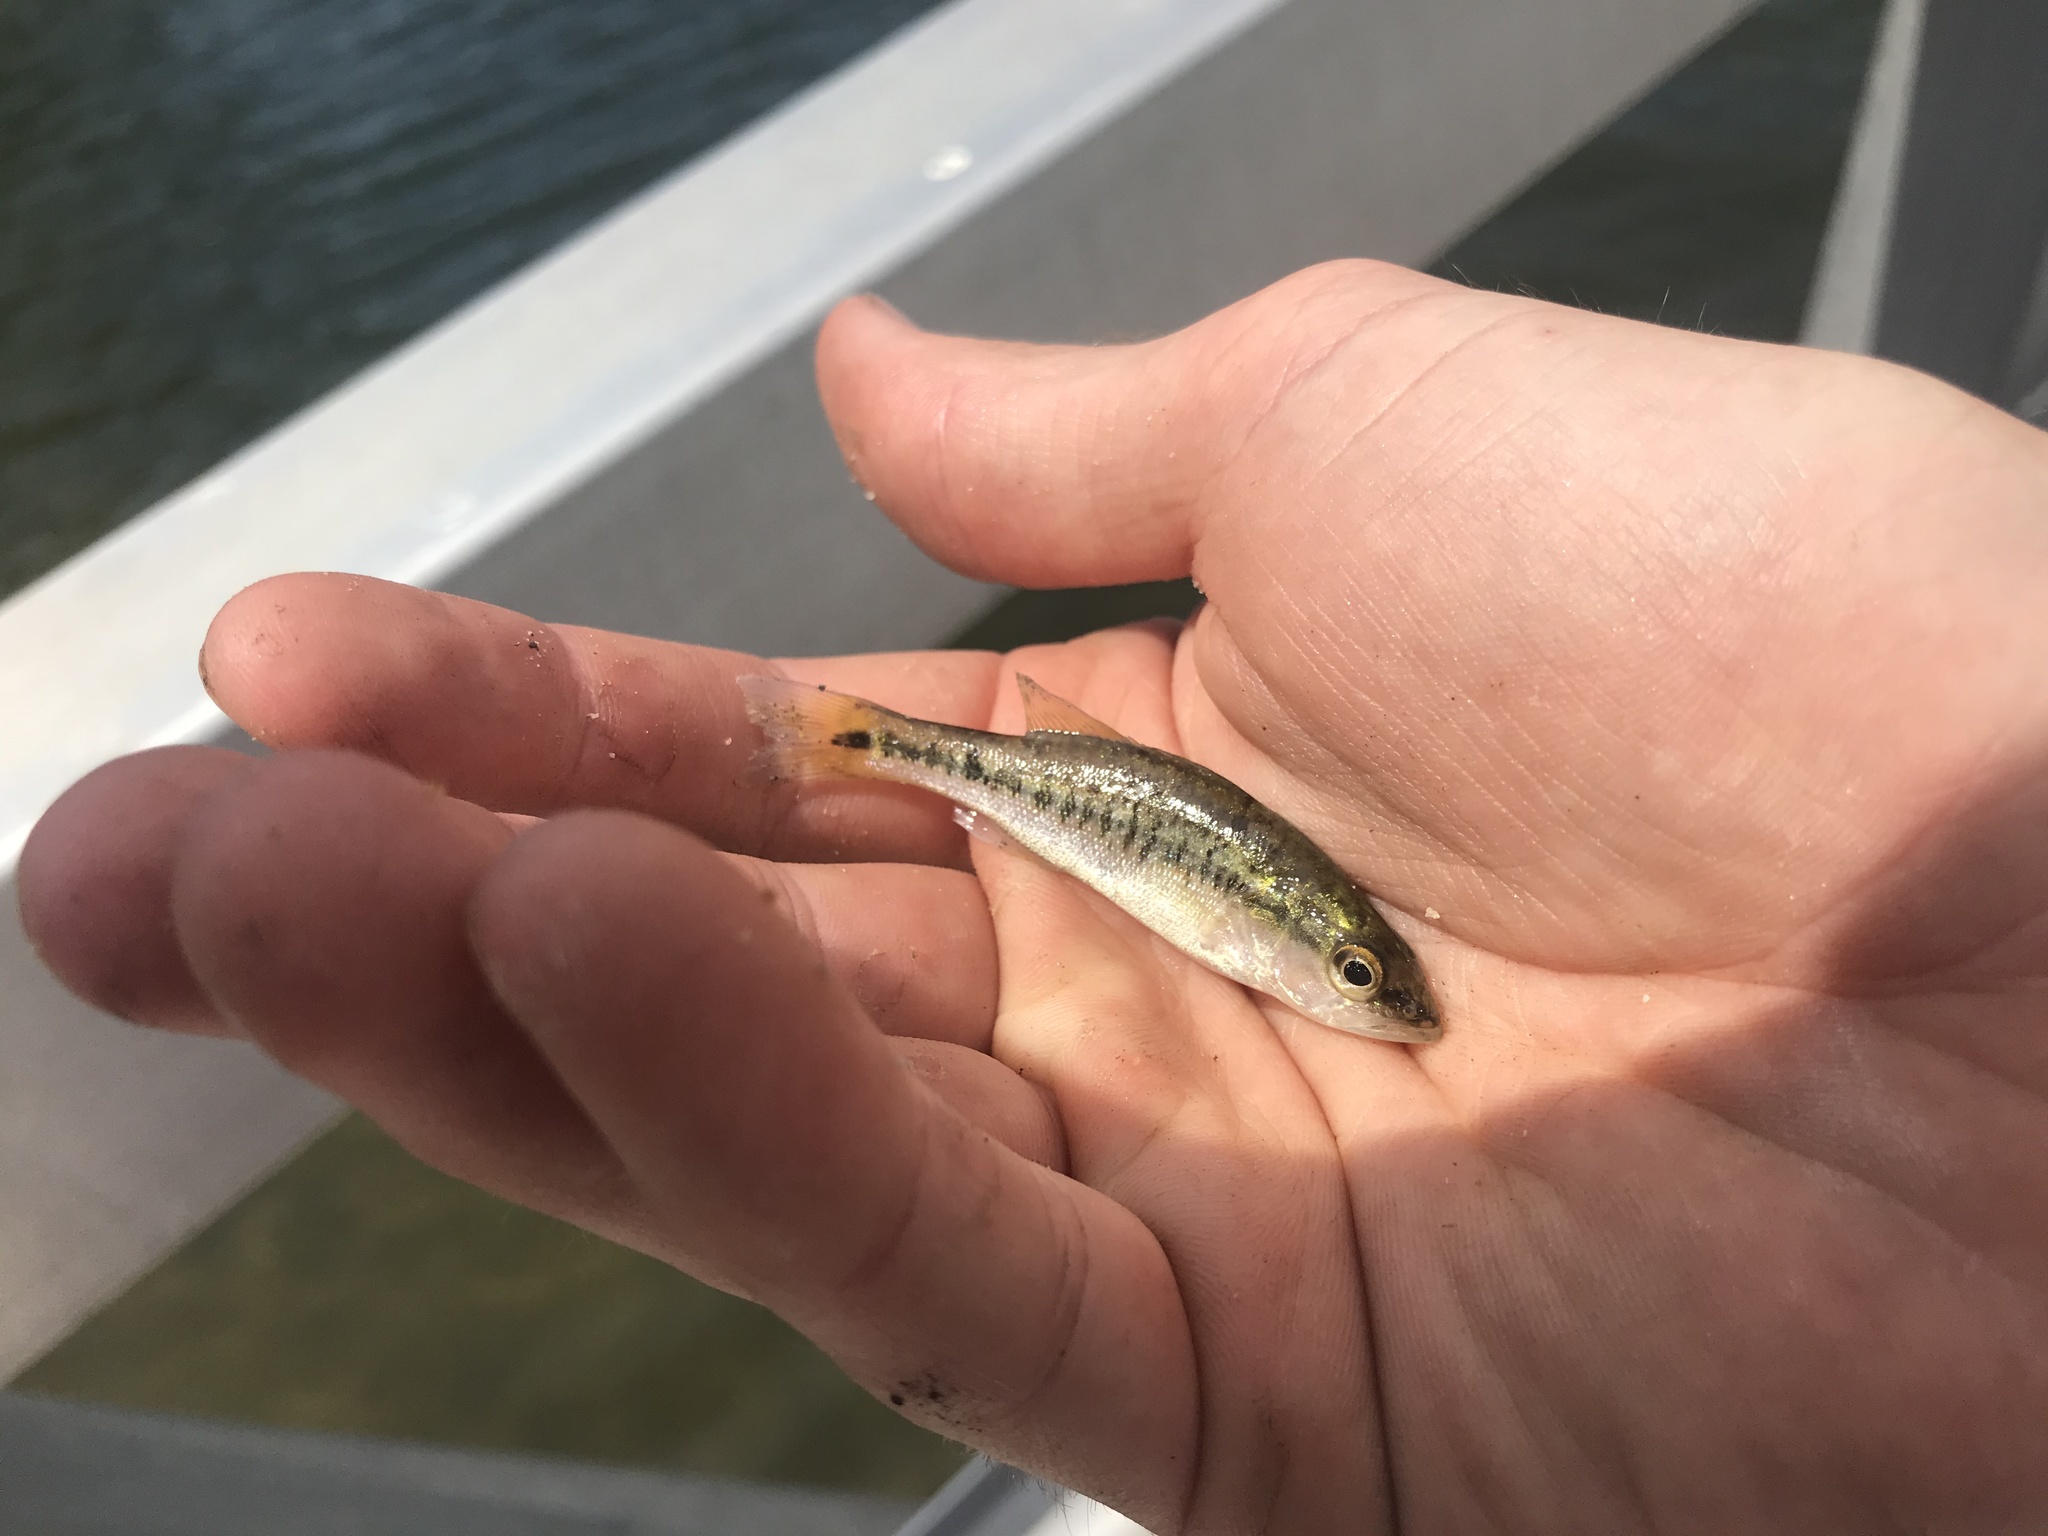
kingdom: Animalia
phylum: Chordata
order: Perciformes
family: Centrarchidae
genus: Micropterus
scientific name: Micropterus
